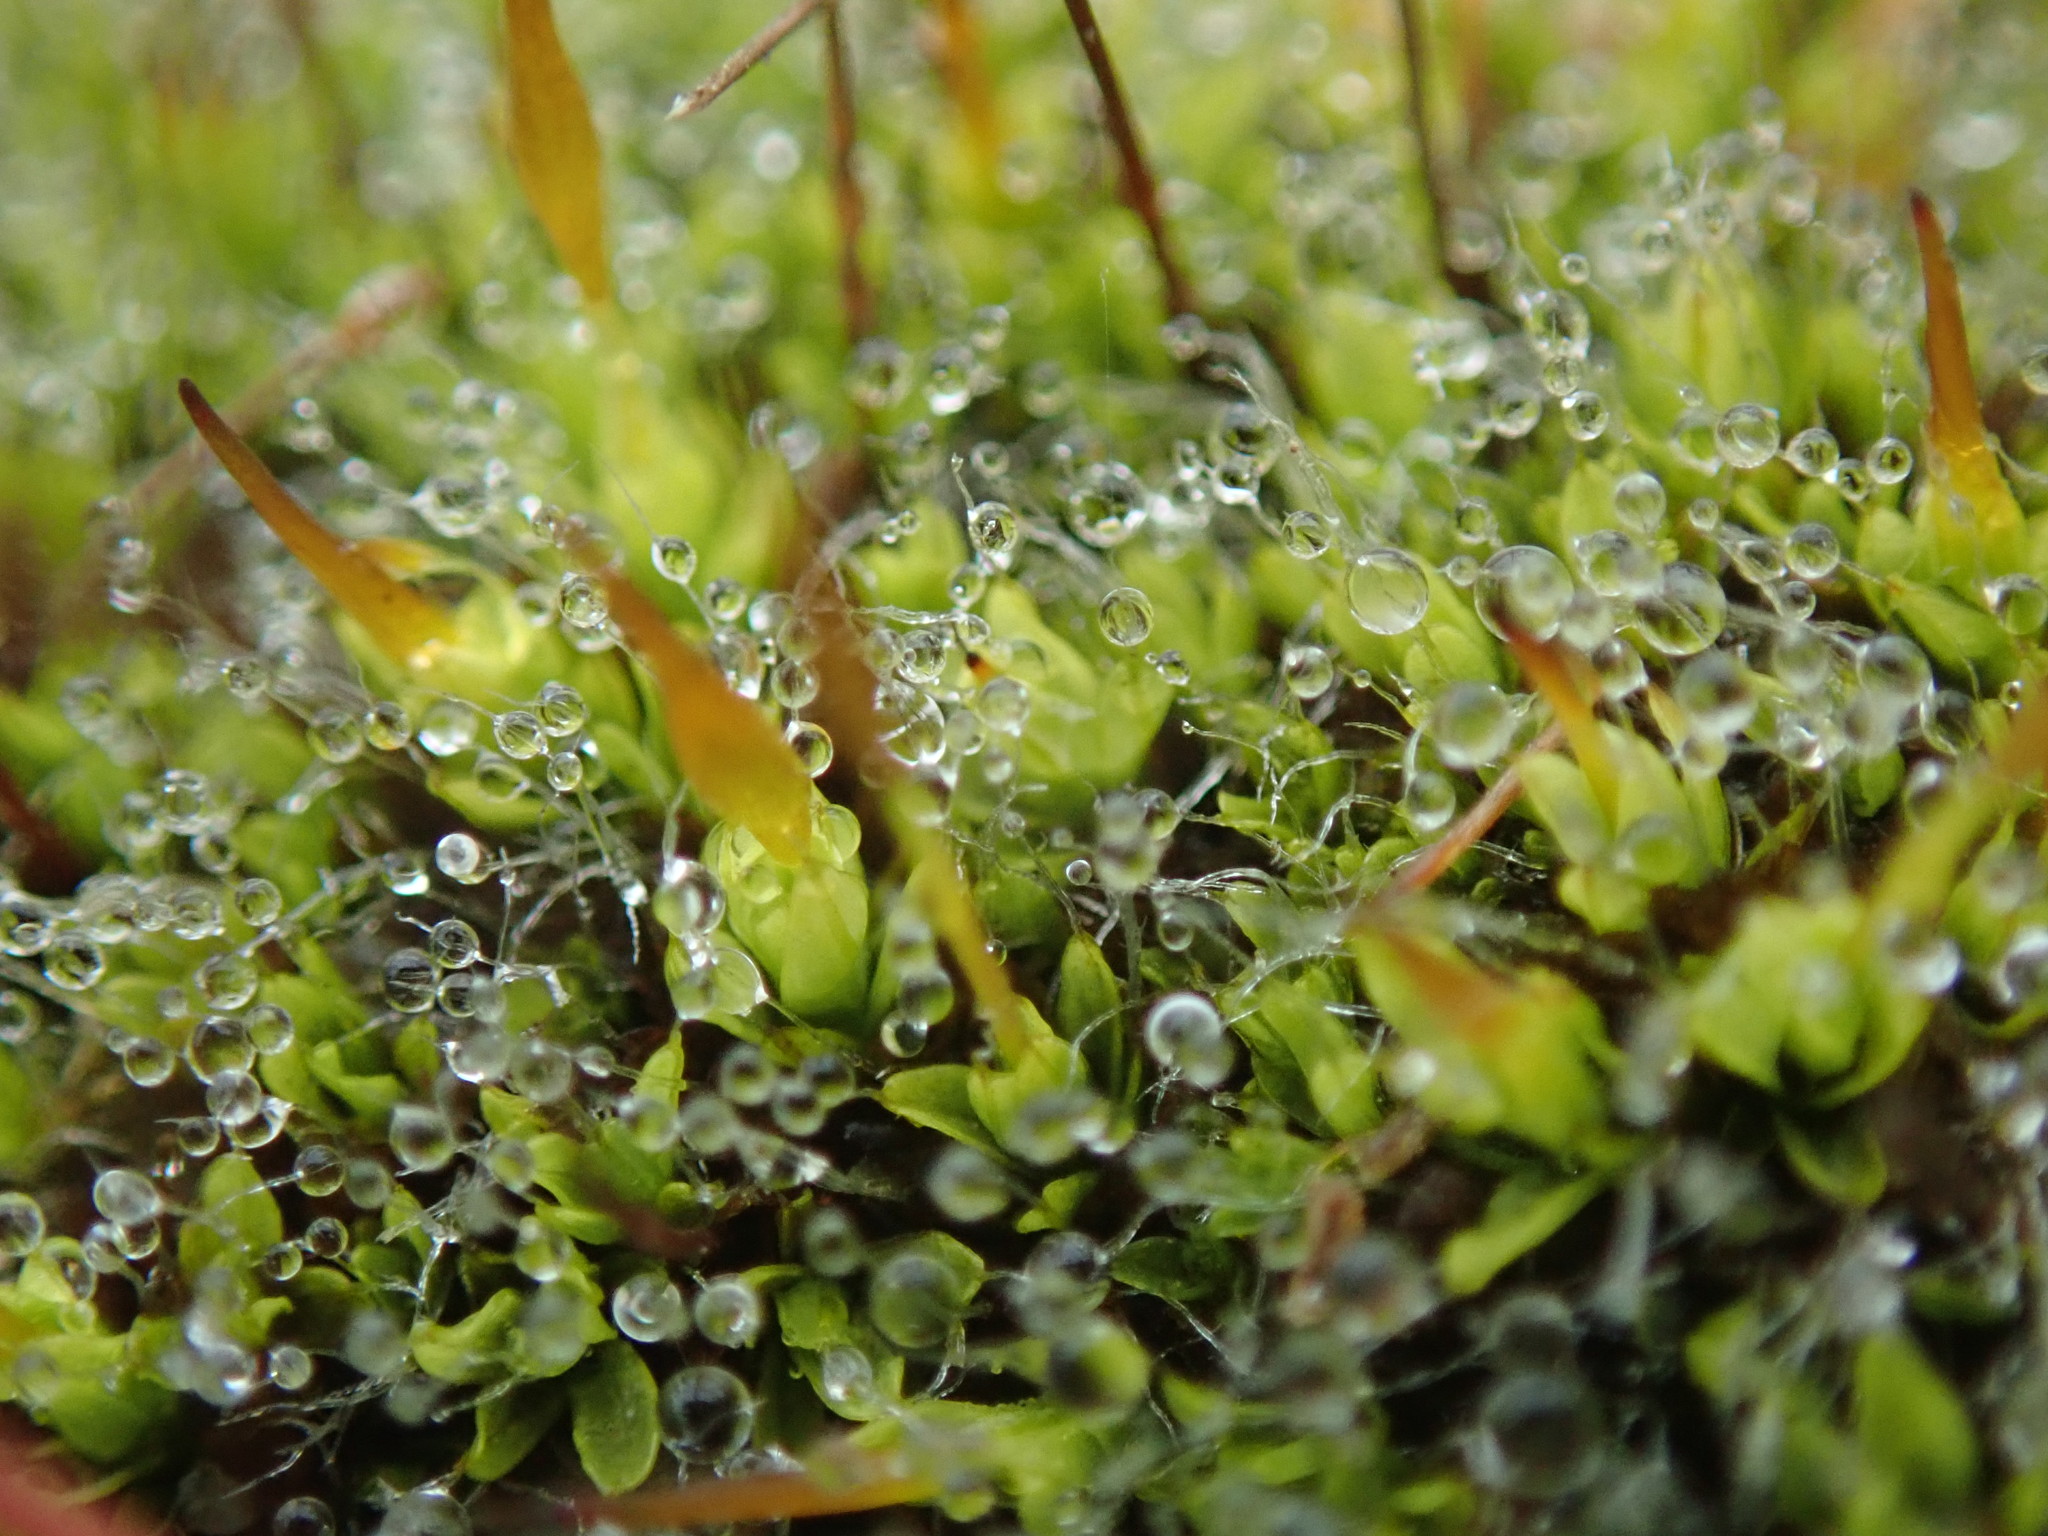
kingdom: Plantae
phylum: Bryophyta
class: Bryopsida
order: Pottiales
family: Pottiaceae
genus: Tortula
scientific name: Tortula muralis
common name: Wall screw-moss
